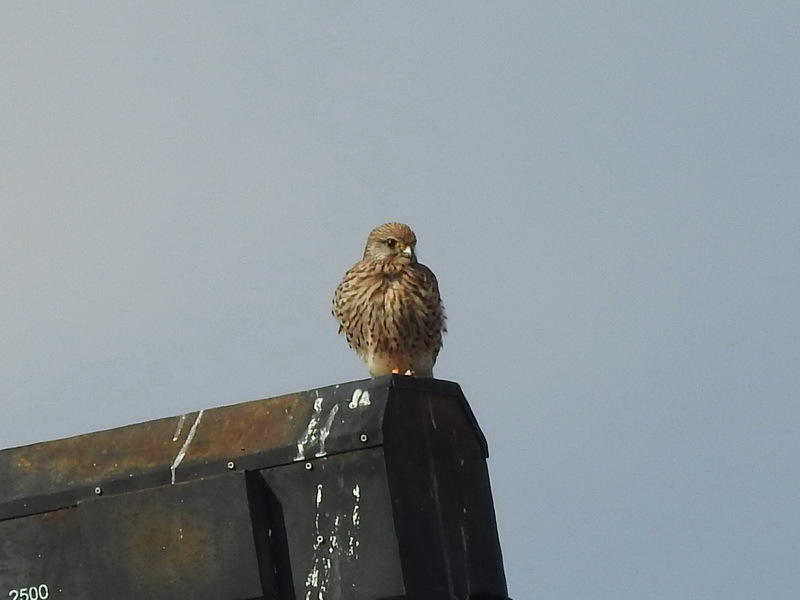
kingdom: Animalia
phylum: Chordata
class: Aves
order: Falconiformes
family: Falconidae
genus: Falco
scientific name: Falco tinnunculus
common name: Common kestrel
